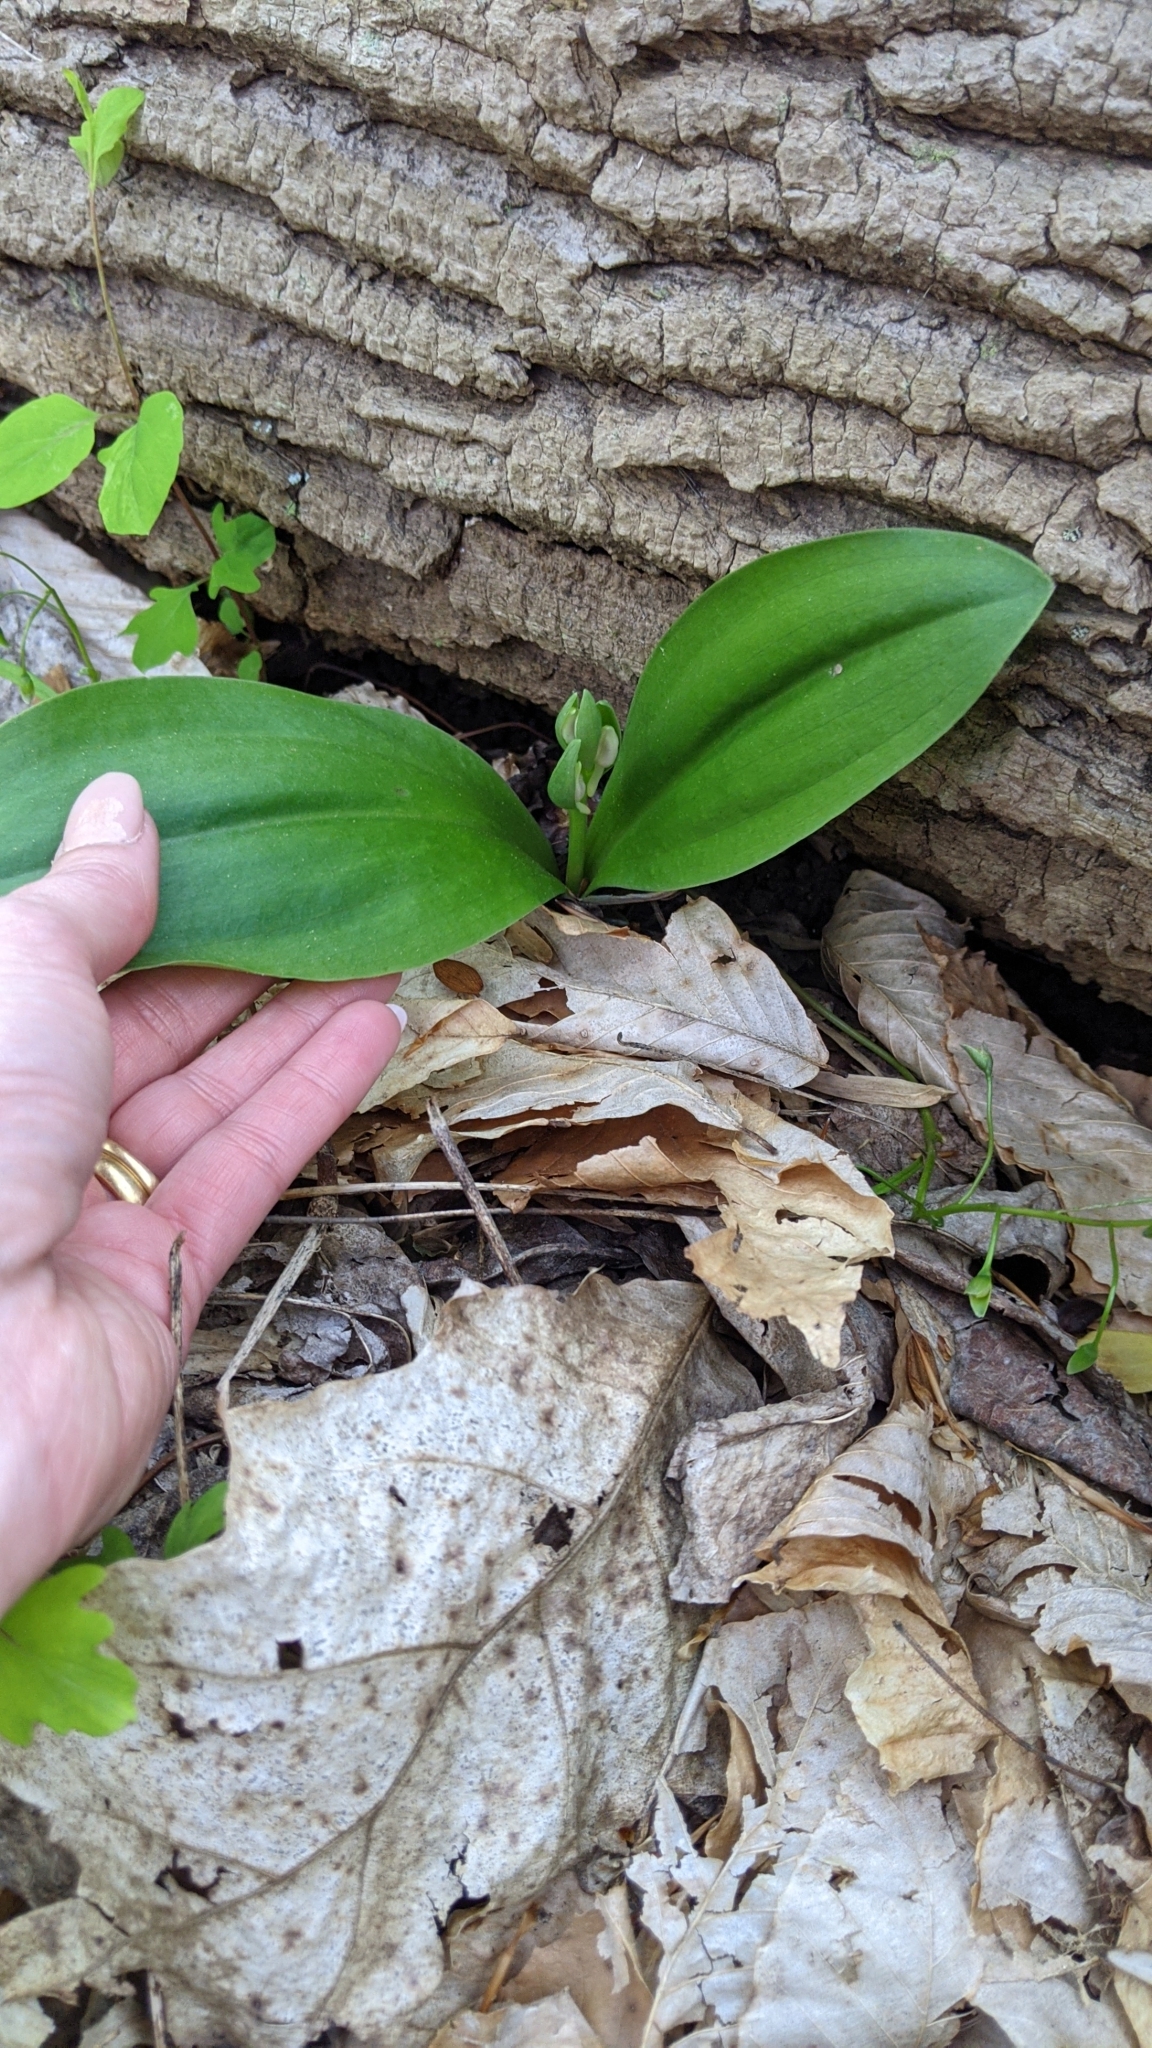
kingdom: Plantae
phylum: Tracheophyta
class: Liliopsida
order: Asparagales
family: Orchidaceae
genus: Galearis
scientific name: Galearis spectabilis
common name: Purple-hooded orchis
